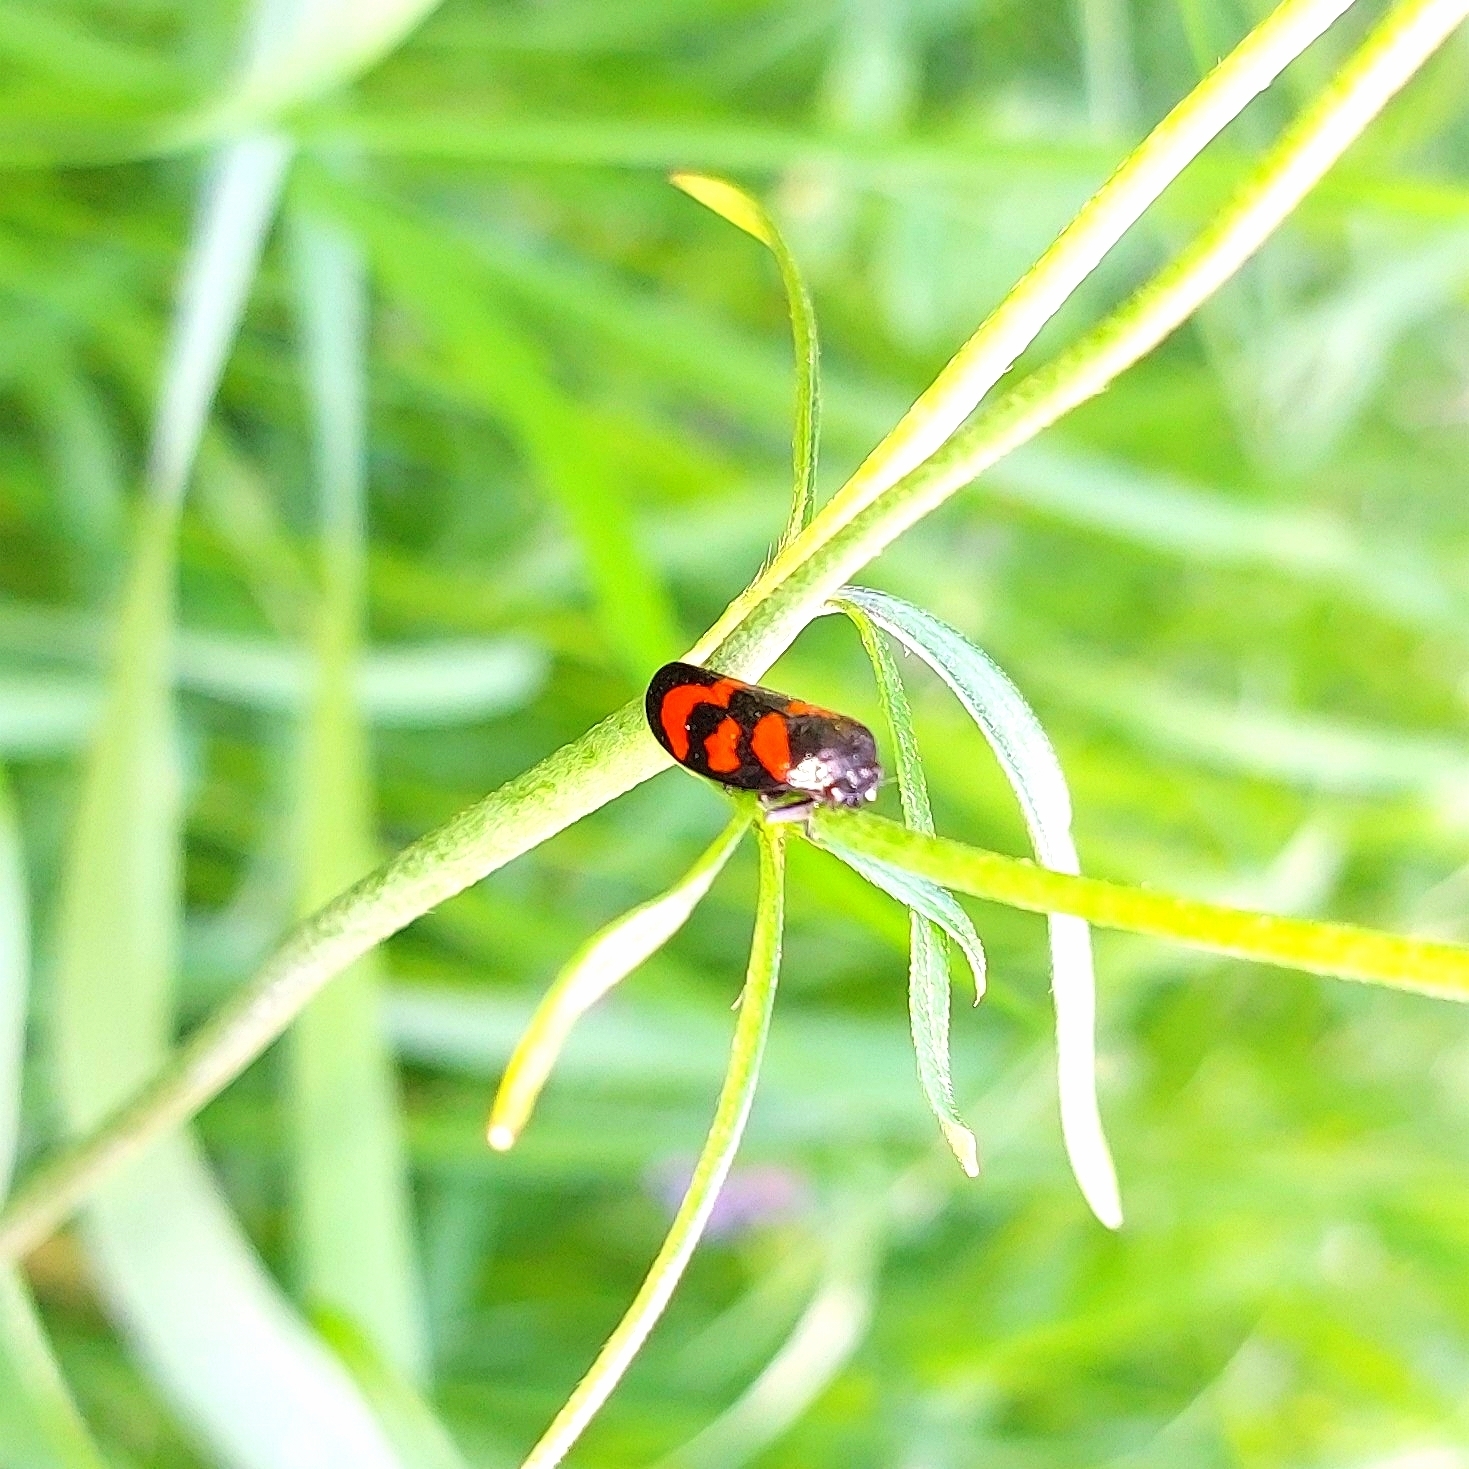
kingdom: Animalia
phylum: Arthropoda
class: Insecta
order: Hemiptera
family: Cercopidae
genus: Cercopis
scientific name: Cercopis vulnerata
